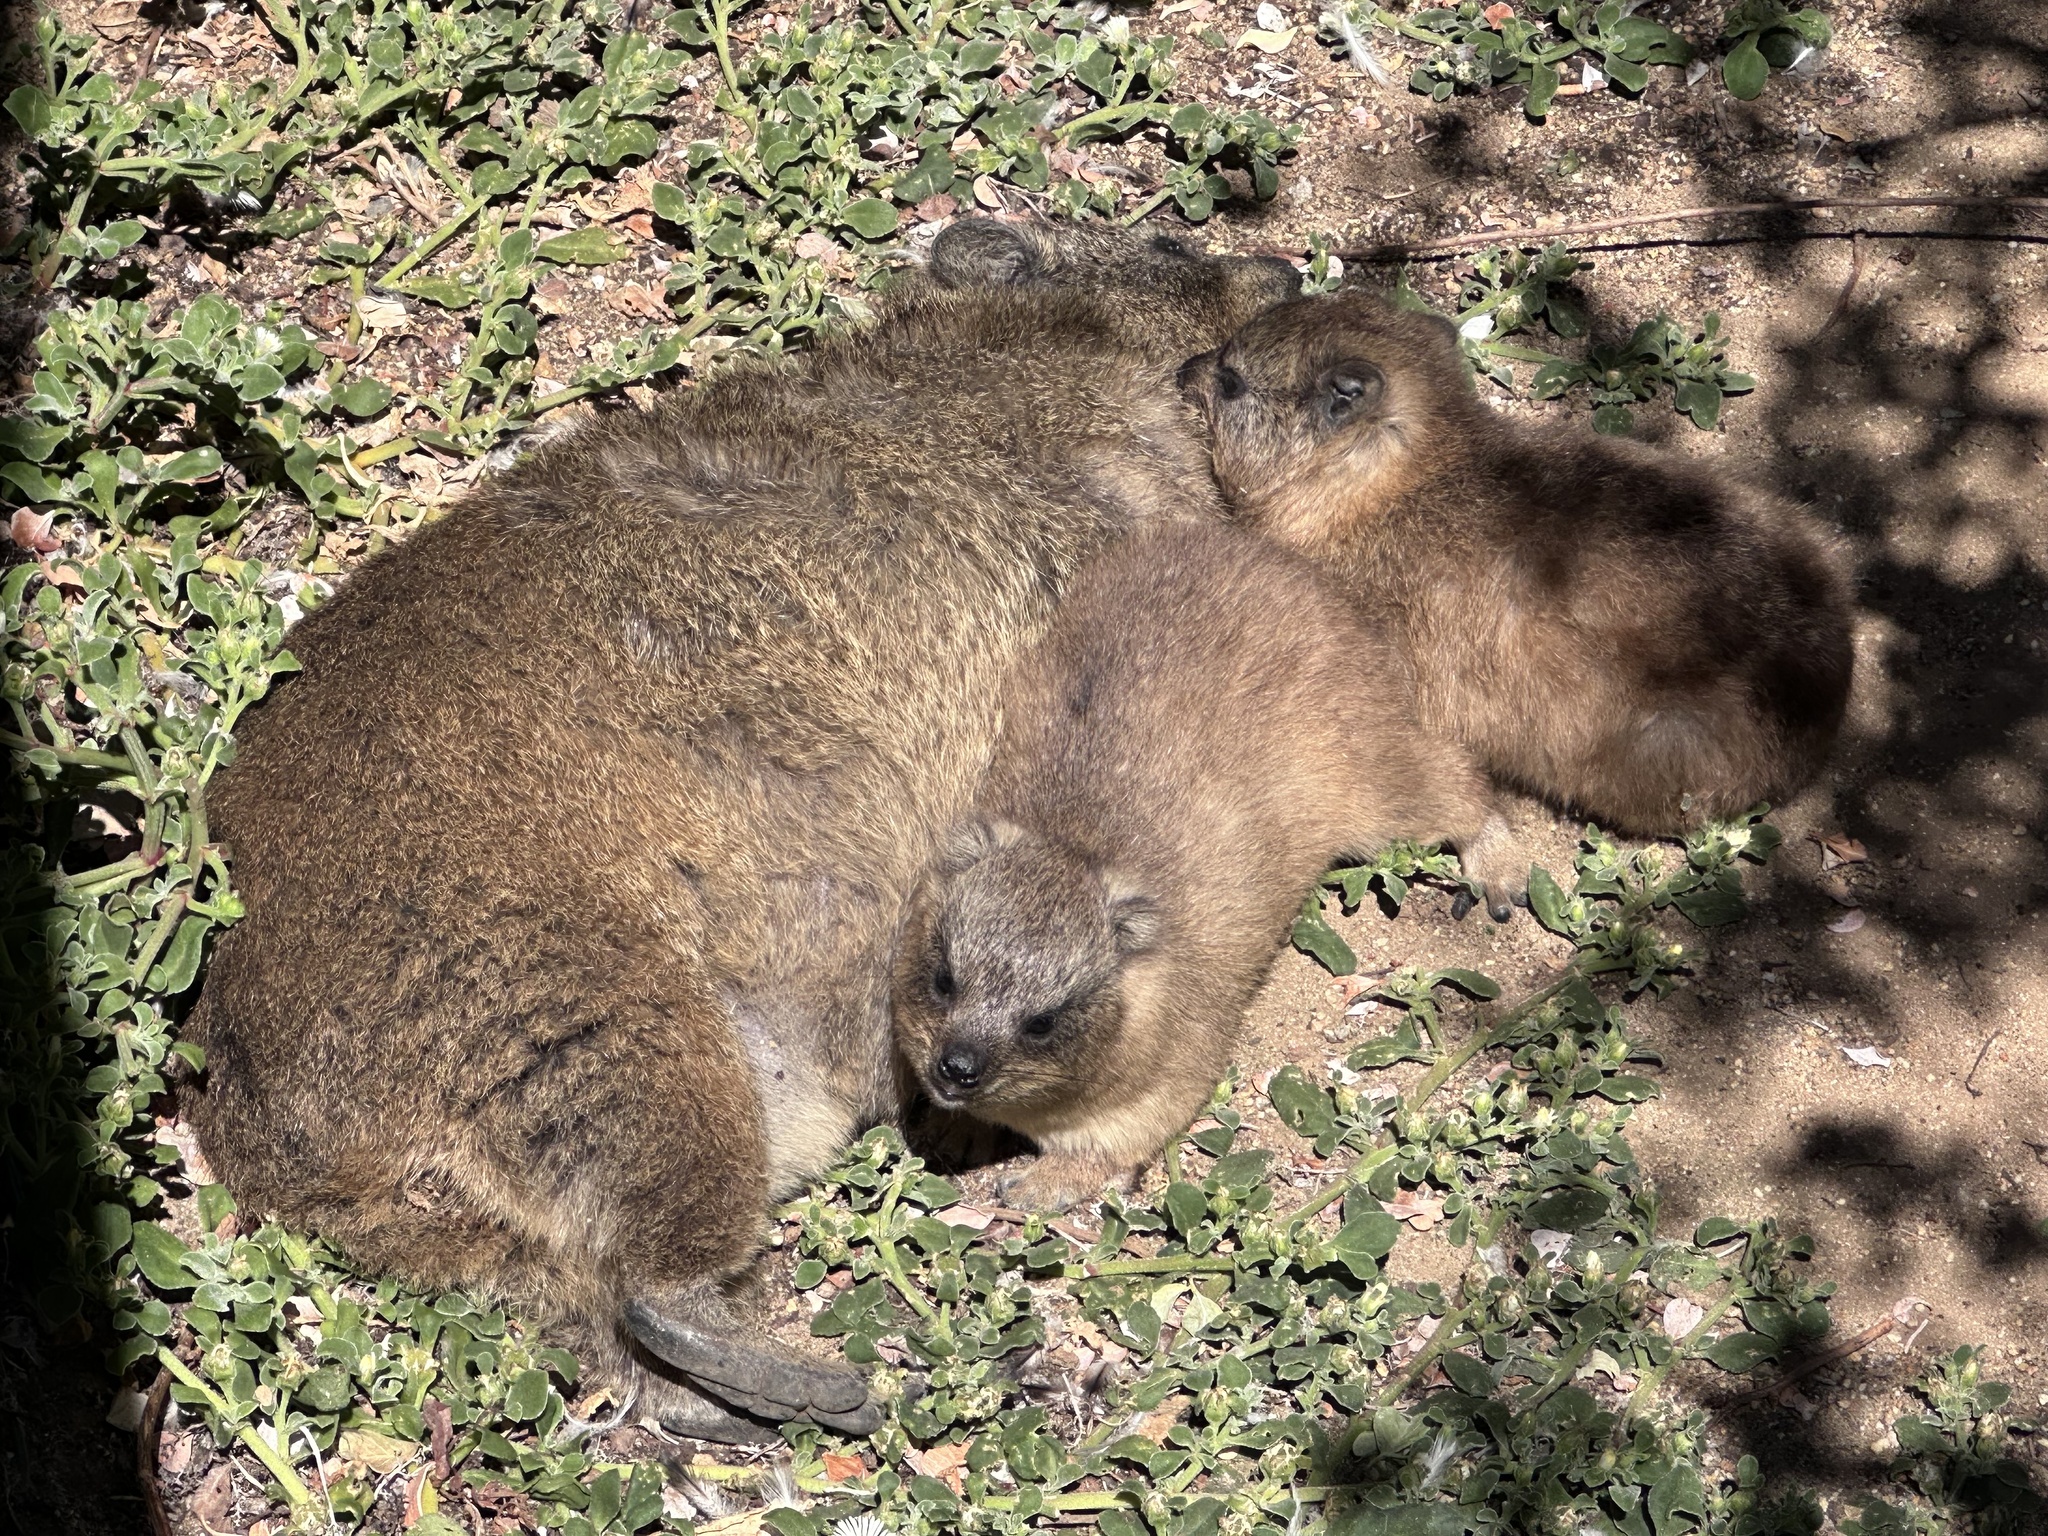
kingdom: Animalia
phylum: Chordata
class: Mammalia
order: Hyracoidea
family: Procaviidae
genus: Procavia
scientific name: Procavia capensis
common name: Rock hyrax
